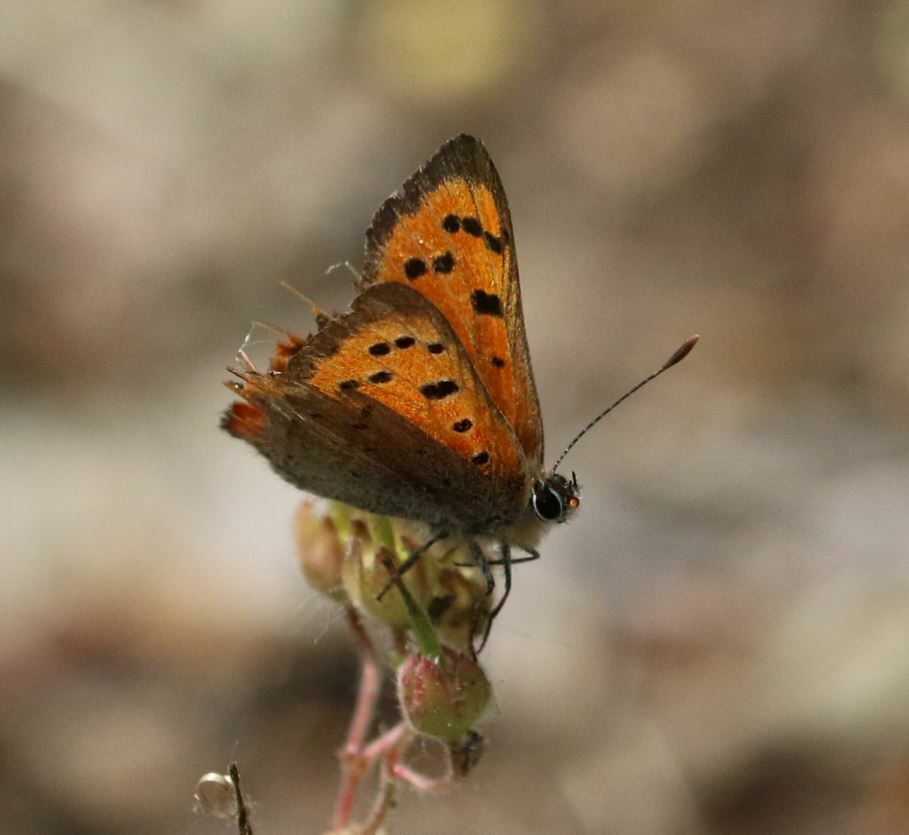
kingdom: Animalia
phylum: Arthropoda
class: Insecta
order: Lepidoptera
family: Lycaenidae
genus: Lycaena
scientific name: Lycaena phlaeas
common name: Small copper
